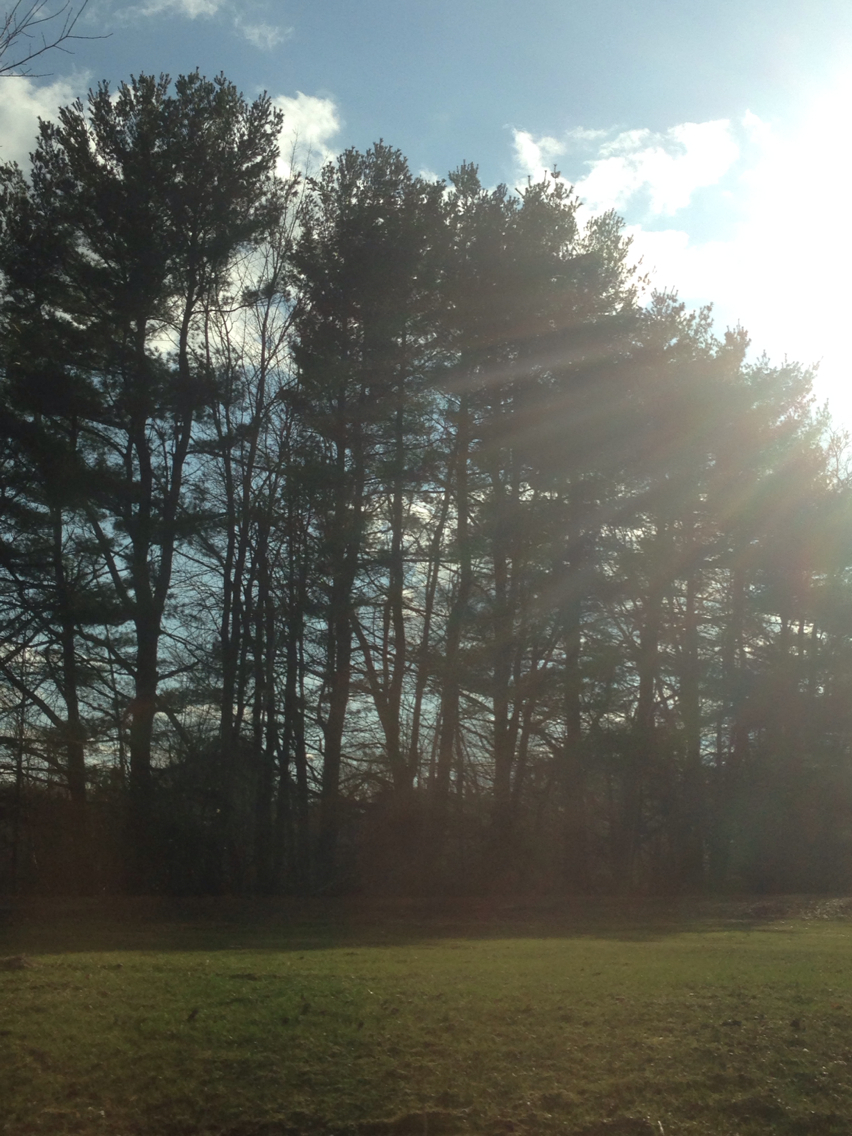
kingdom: Plantae
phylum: Tracheophyta
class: Pinopsida
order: Pinales
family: Pinaceae
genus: Pinus
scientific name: Pinus strobus
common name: Weymouth pine
